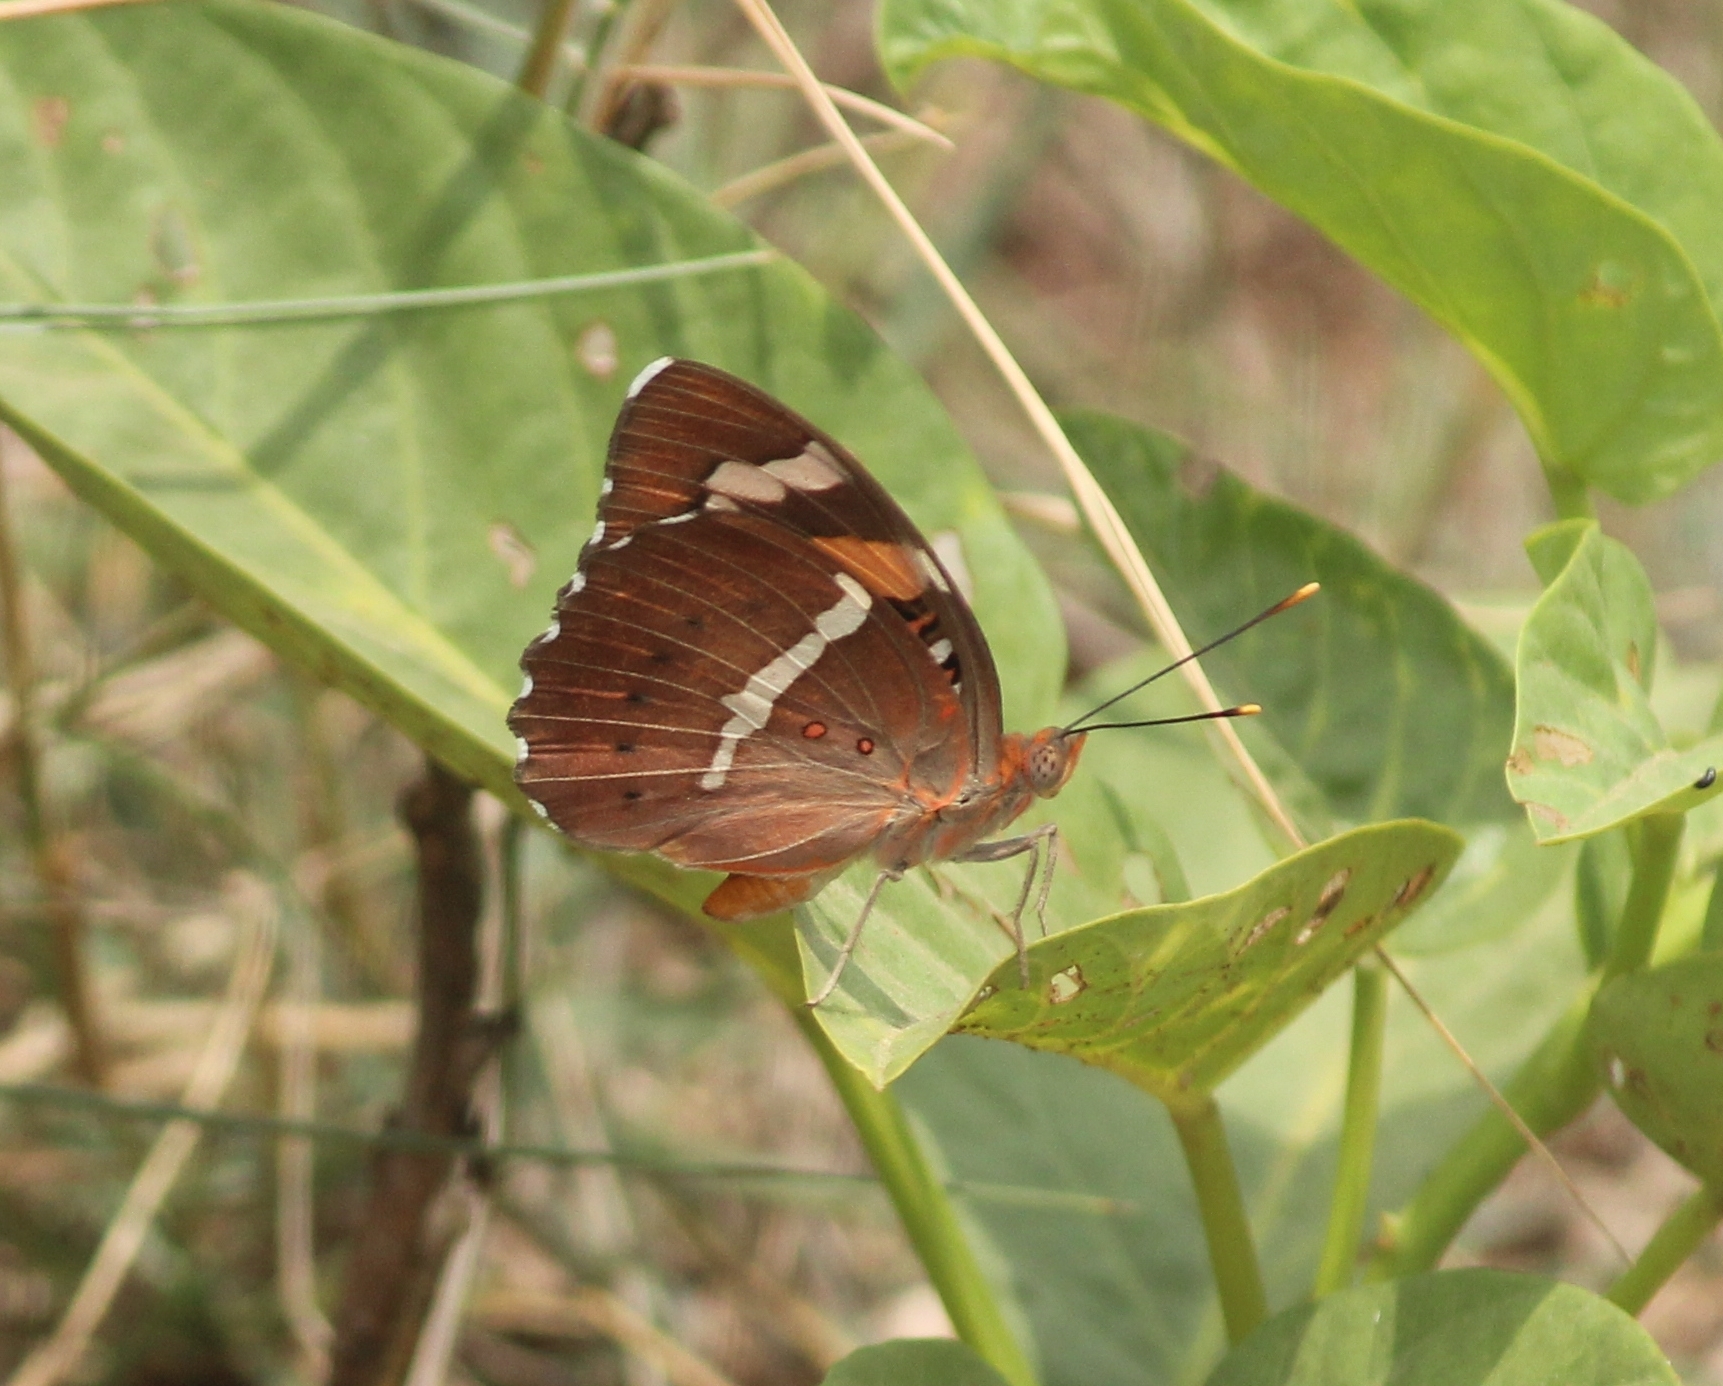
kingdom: Animalia
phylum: Arthropoda
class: Insecta
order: Lepidoptera
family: Nymphalidae
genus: Euthalia
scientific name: Euthalia nais
